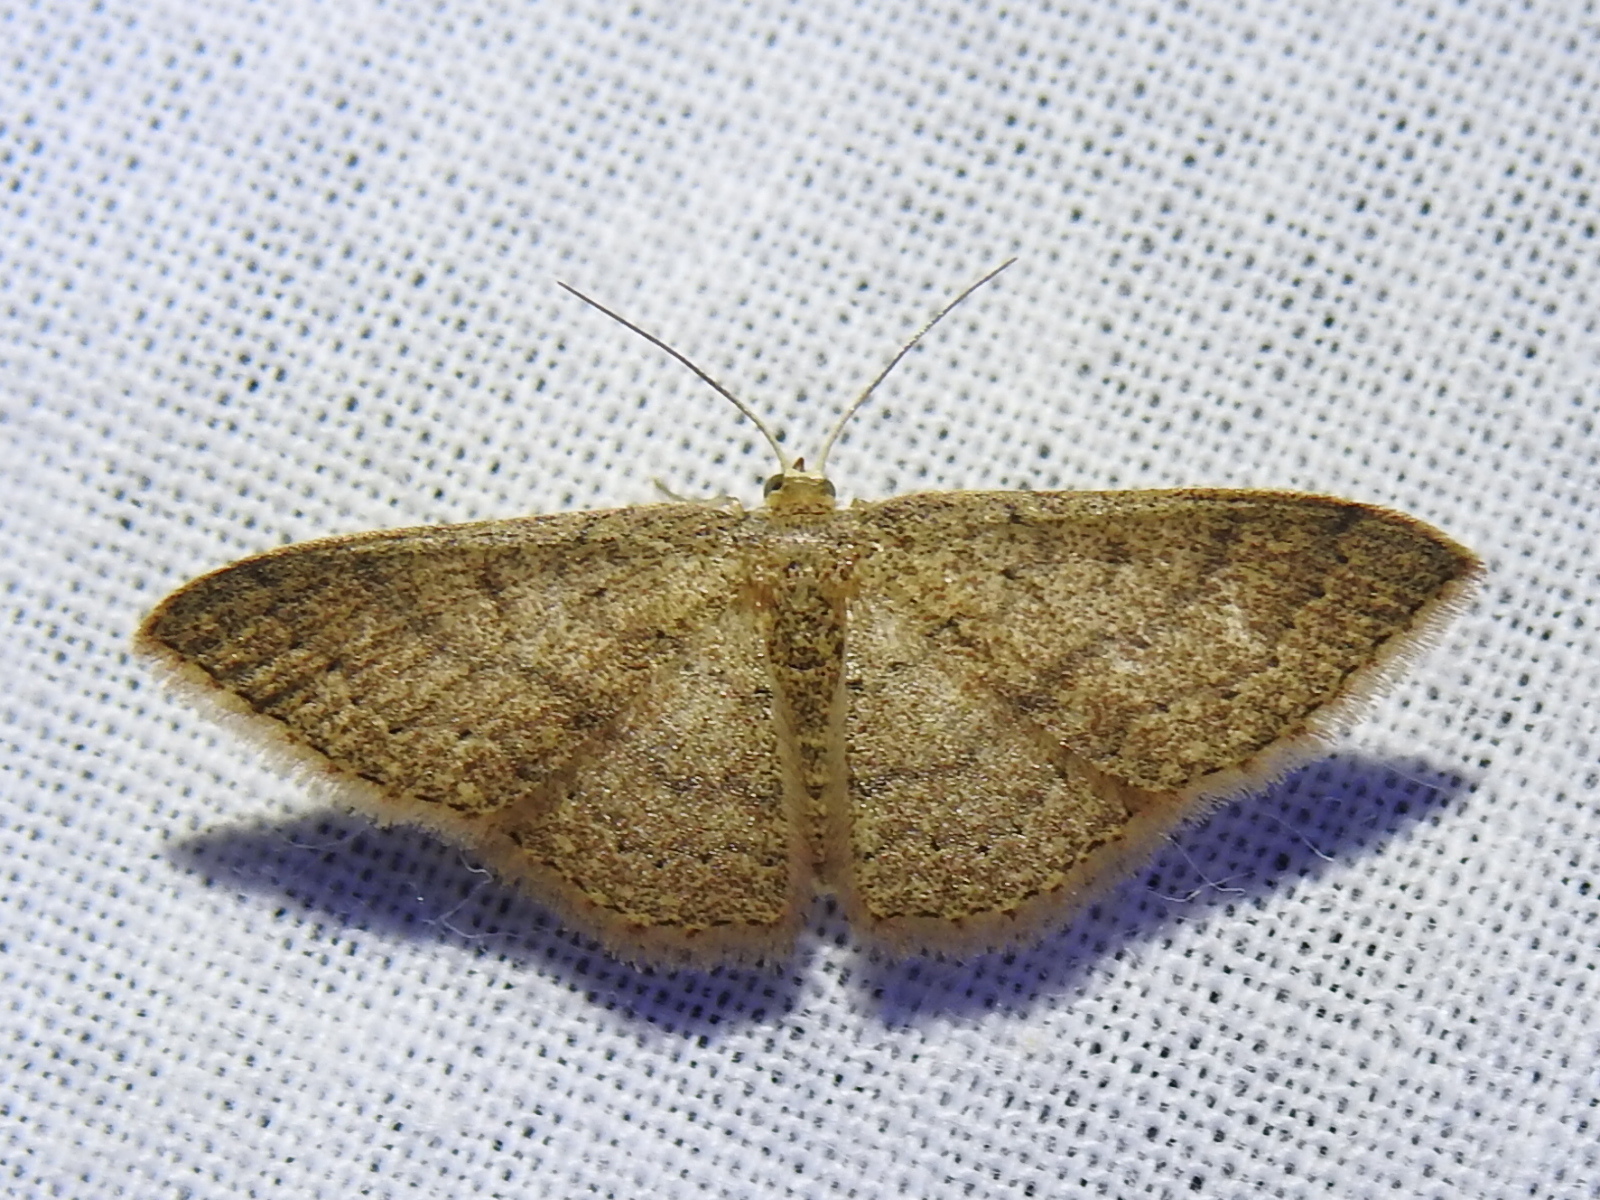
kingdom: Animalia
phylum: Arthropoda
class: Insecta
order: Lepidoptera
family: Geometridae
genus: Pleuroprucha
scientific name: Pleuroprucha insulsaria
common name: Common tan wave
